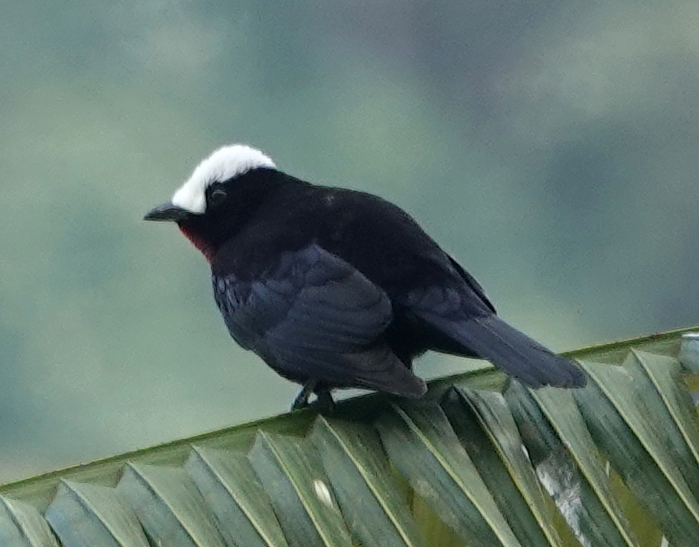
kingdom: Animalia
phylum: Chordata
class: Aves
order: Passeriformes
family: Thraupidae
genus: Sericossypha
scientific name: Sericossypha albocristata
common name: White-capped tanager
